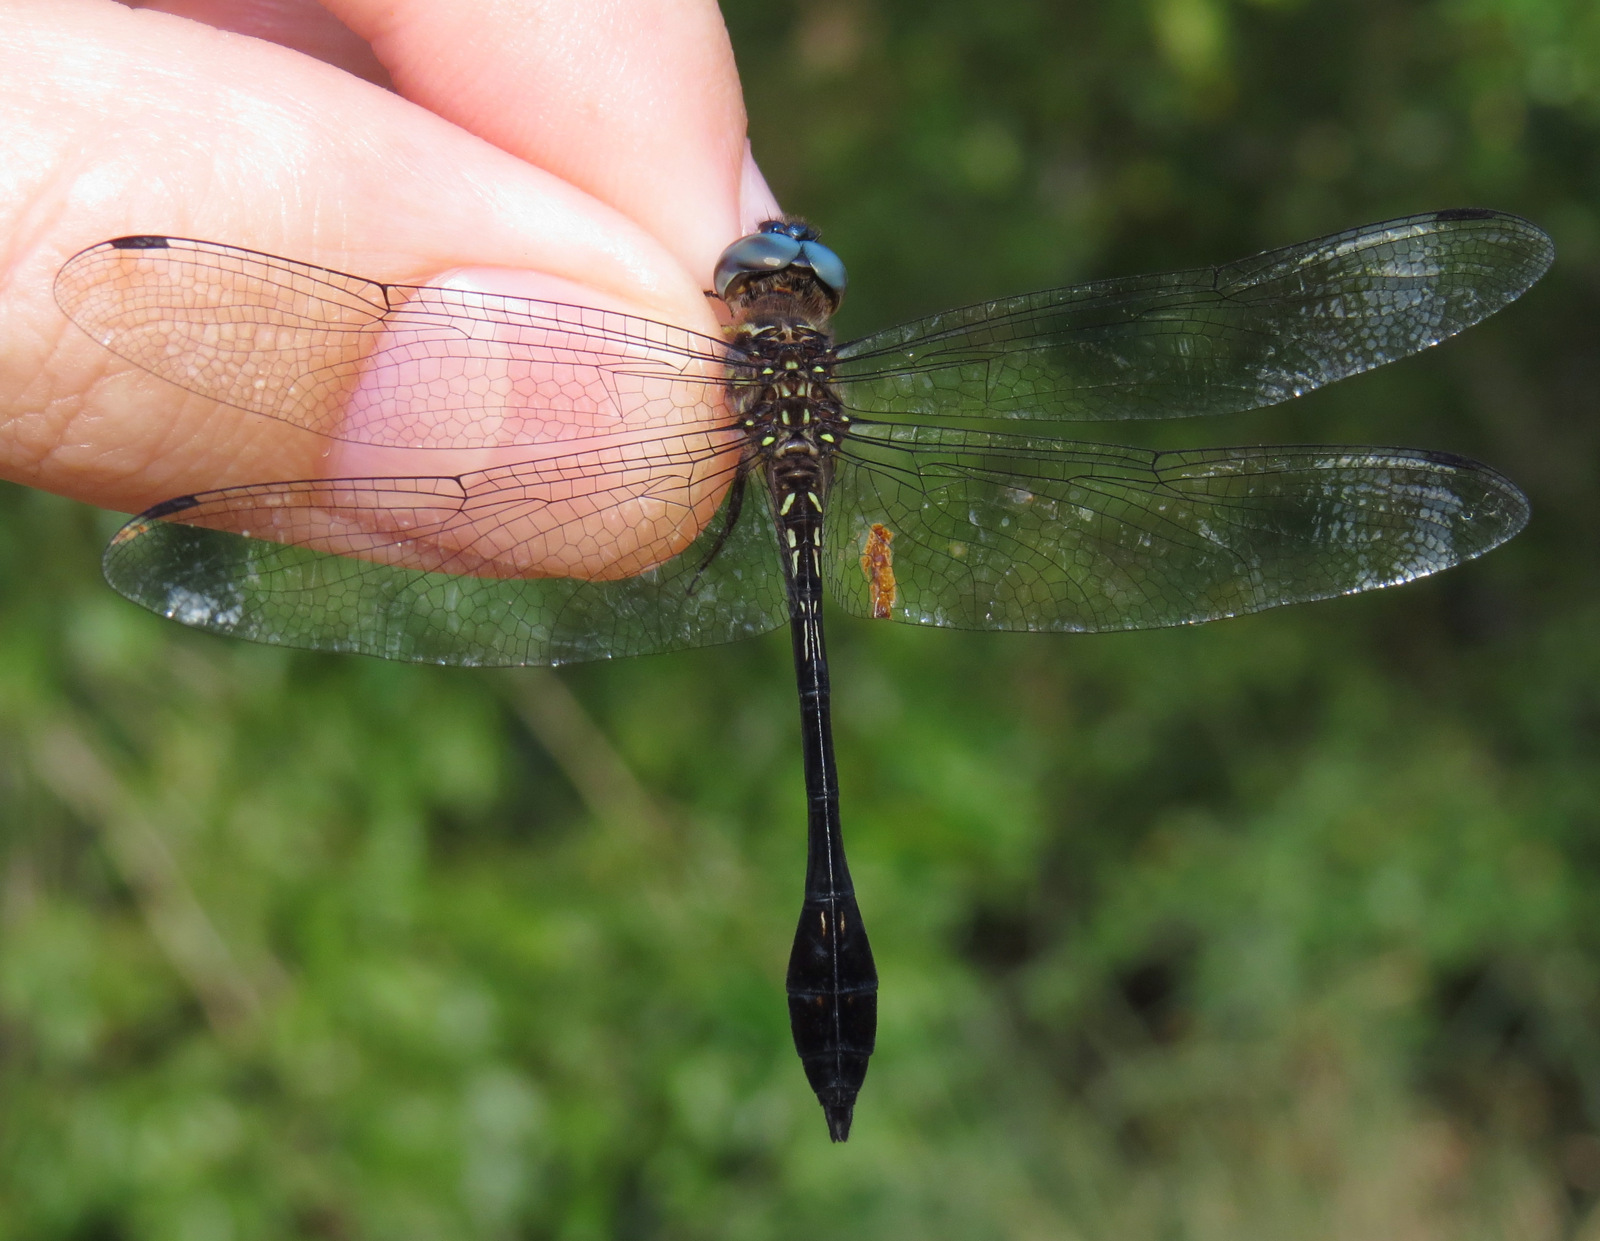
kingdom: Animalia
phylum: Arthropoda
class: Insecta
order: Odonata
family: Libellulidae
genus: Scapanea
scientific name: Scapanea frontalis
